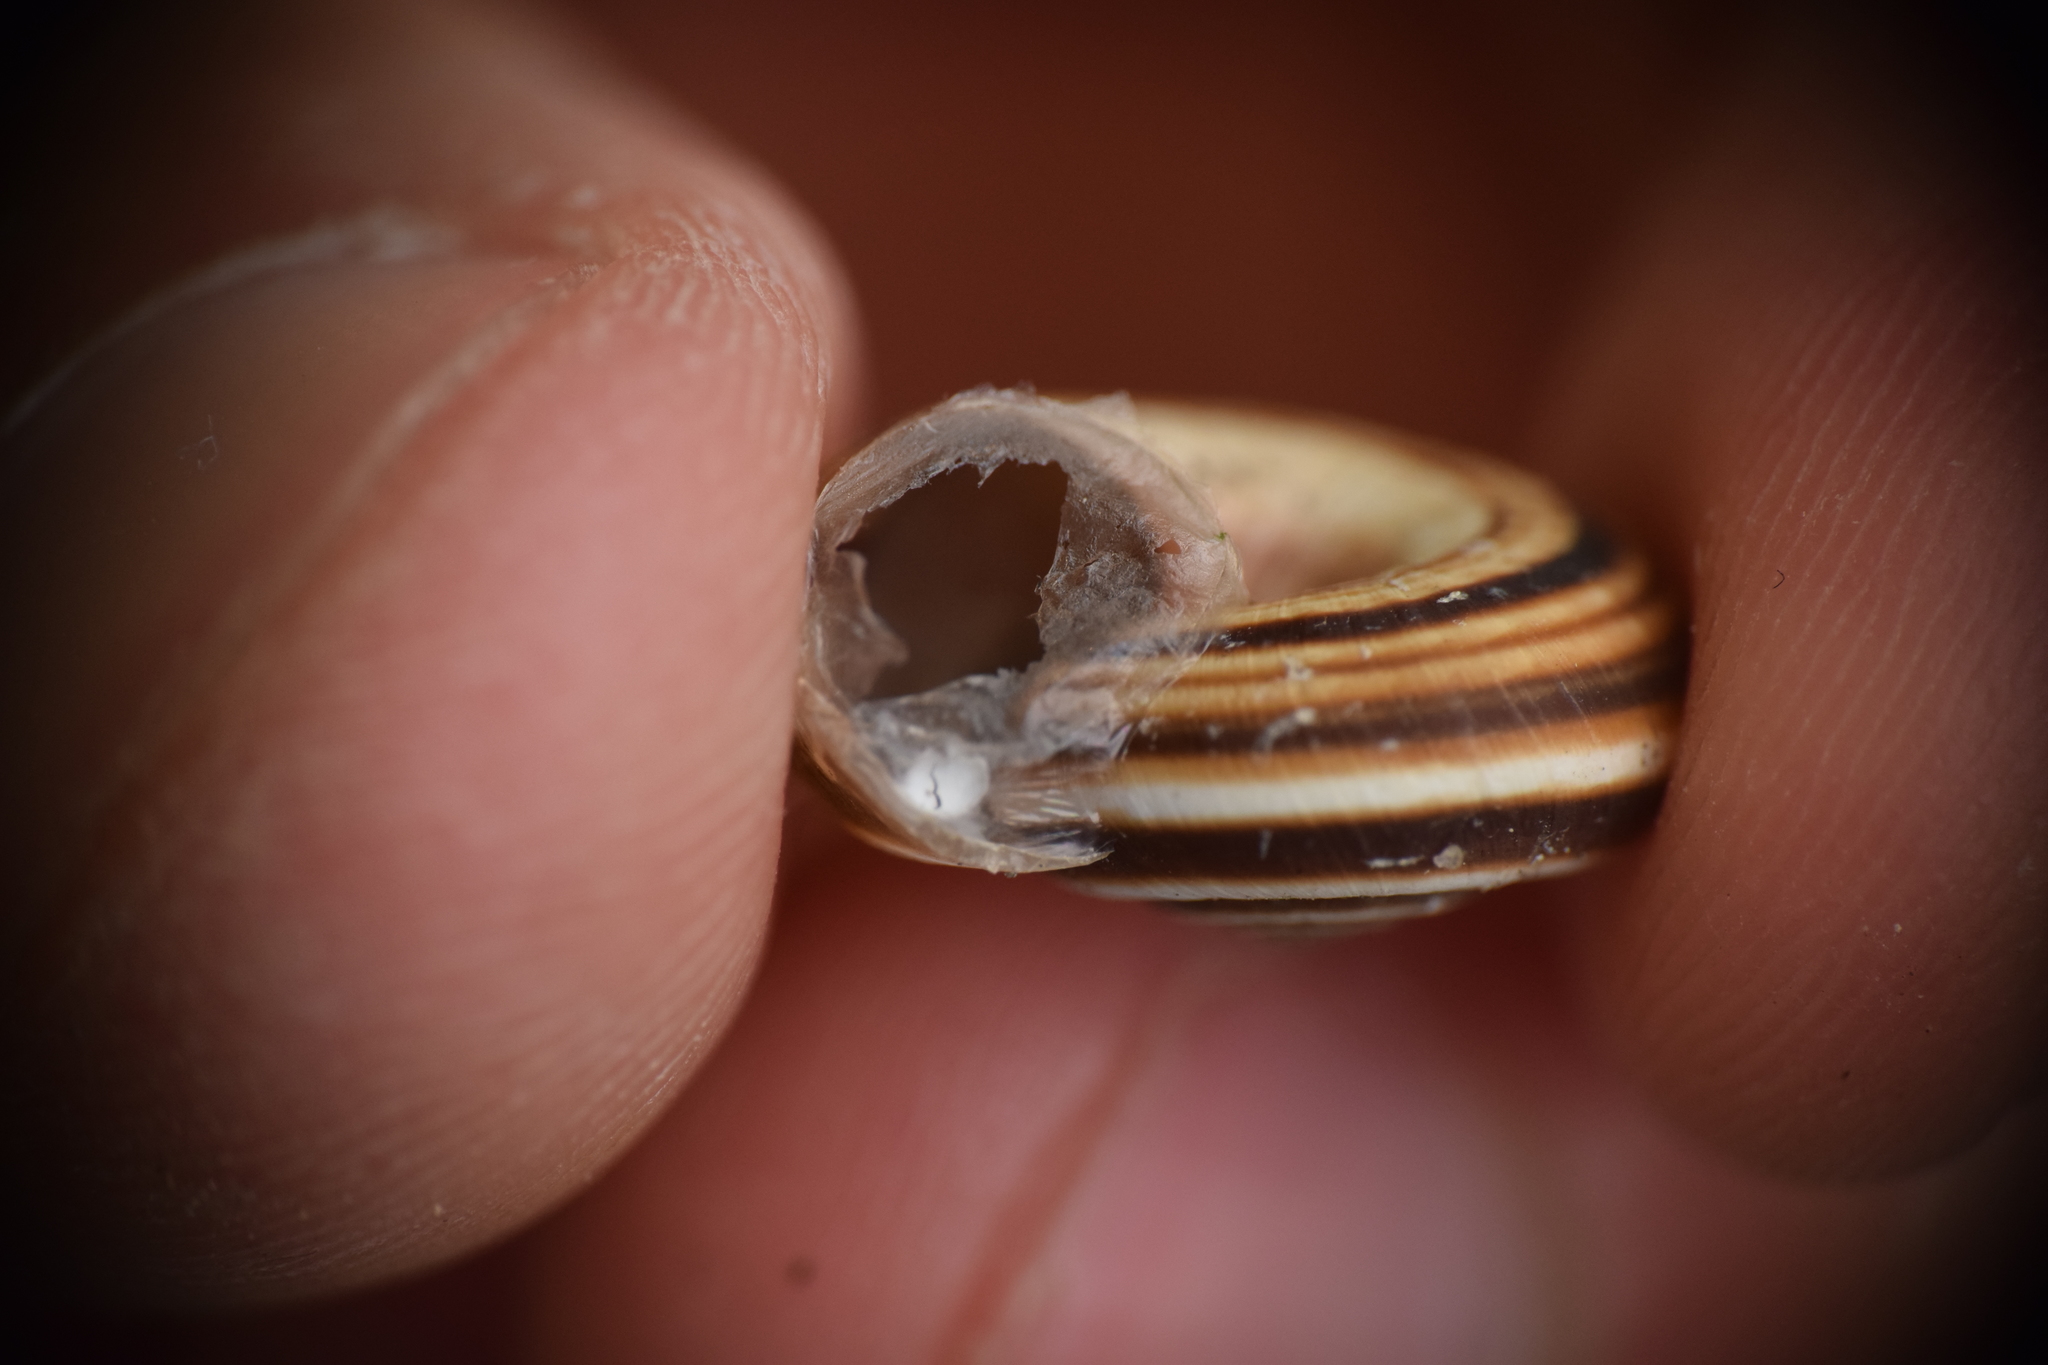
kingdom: Animalia
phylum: Mollusca
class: Gastropoda
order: Stylommatophora
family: Geomitridae
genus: Cernuella
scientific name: Cernuella neglecta
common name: Neglected dune snail
